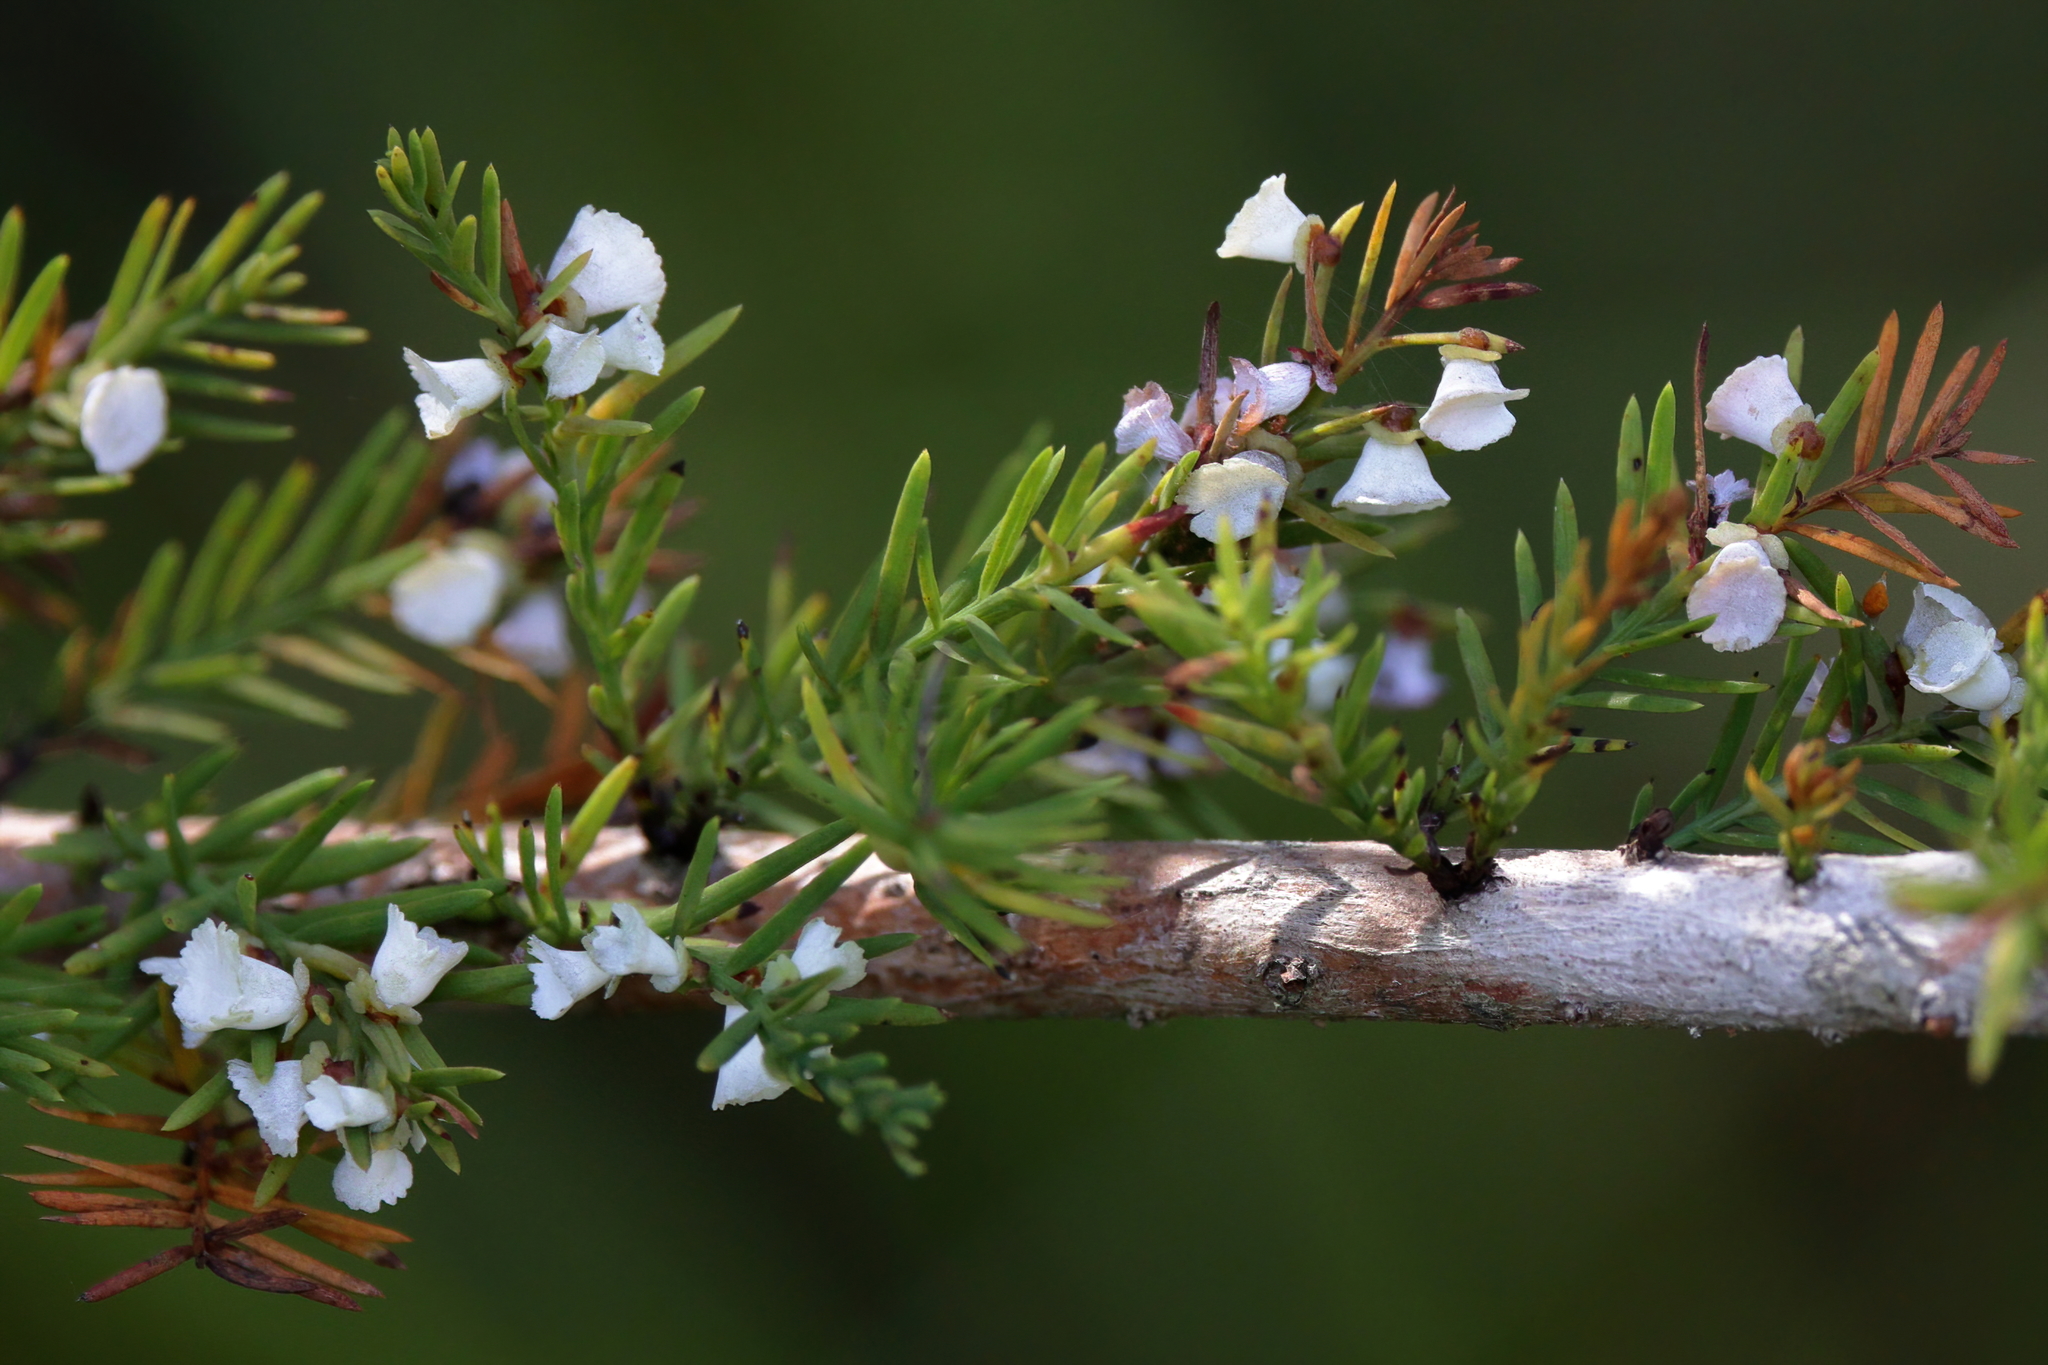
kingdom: Animalia
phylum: Arthropoda
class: Insecta
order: Diptera
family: Cecidomyiidae
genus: Taxodiomyia
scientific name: Taxodiomyia cupressi
